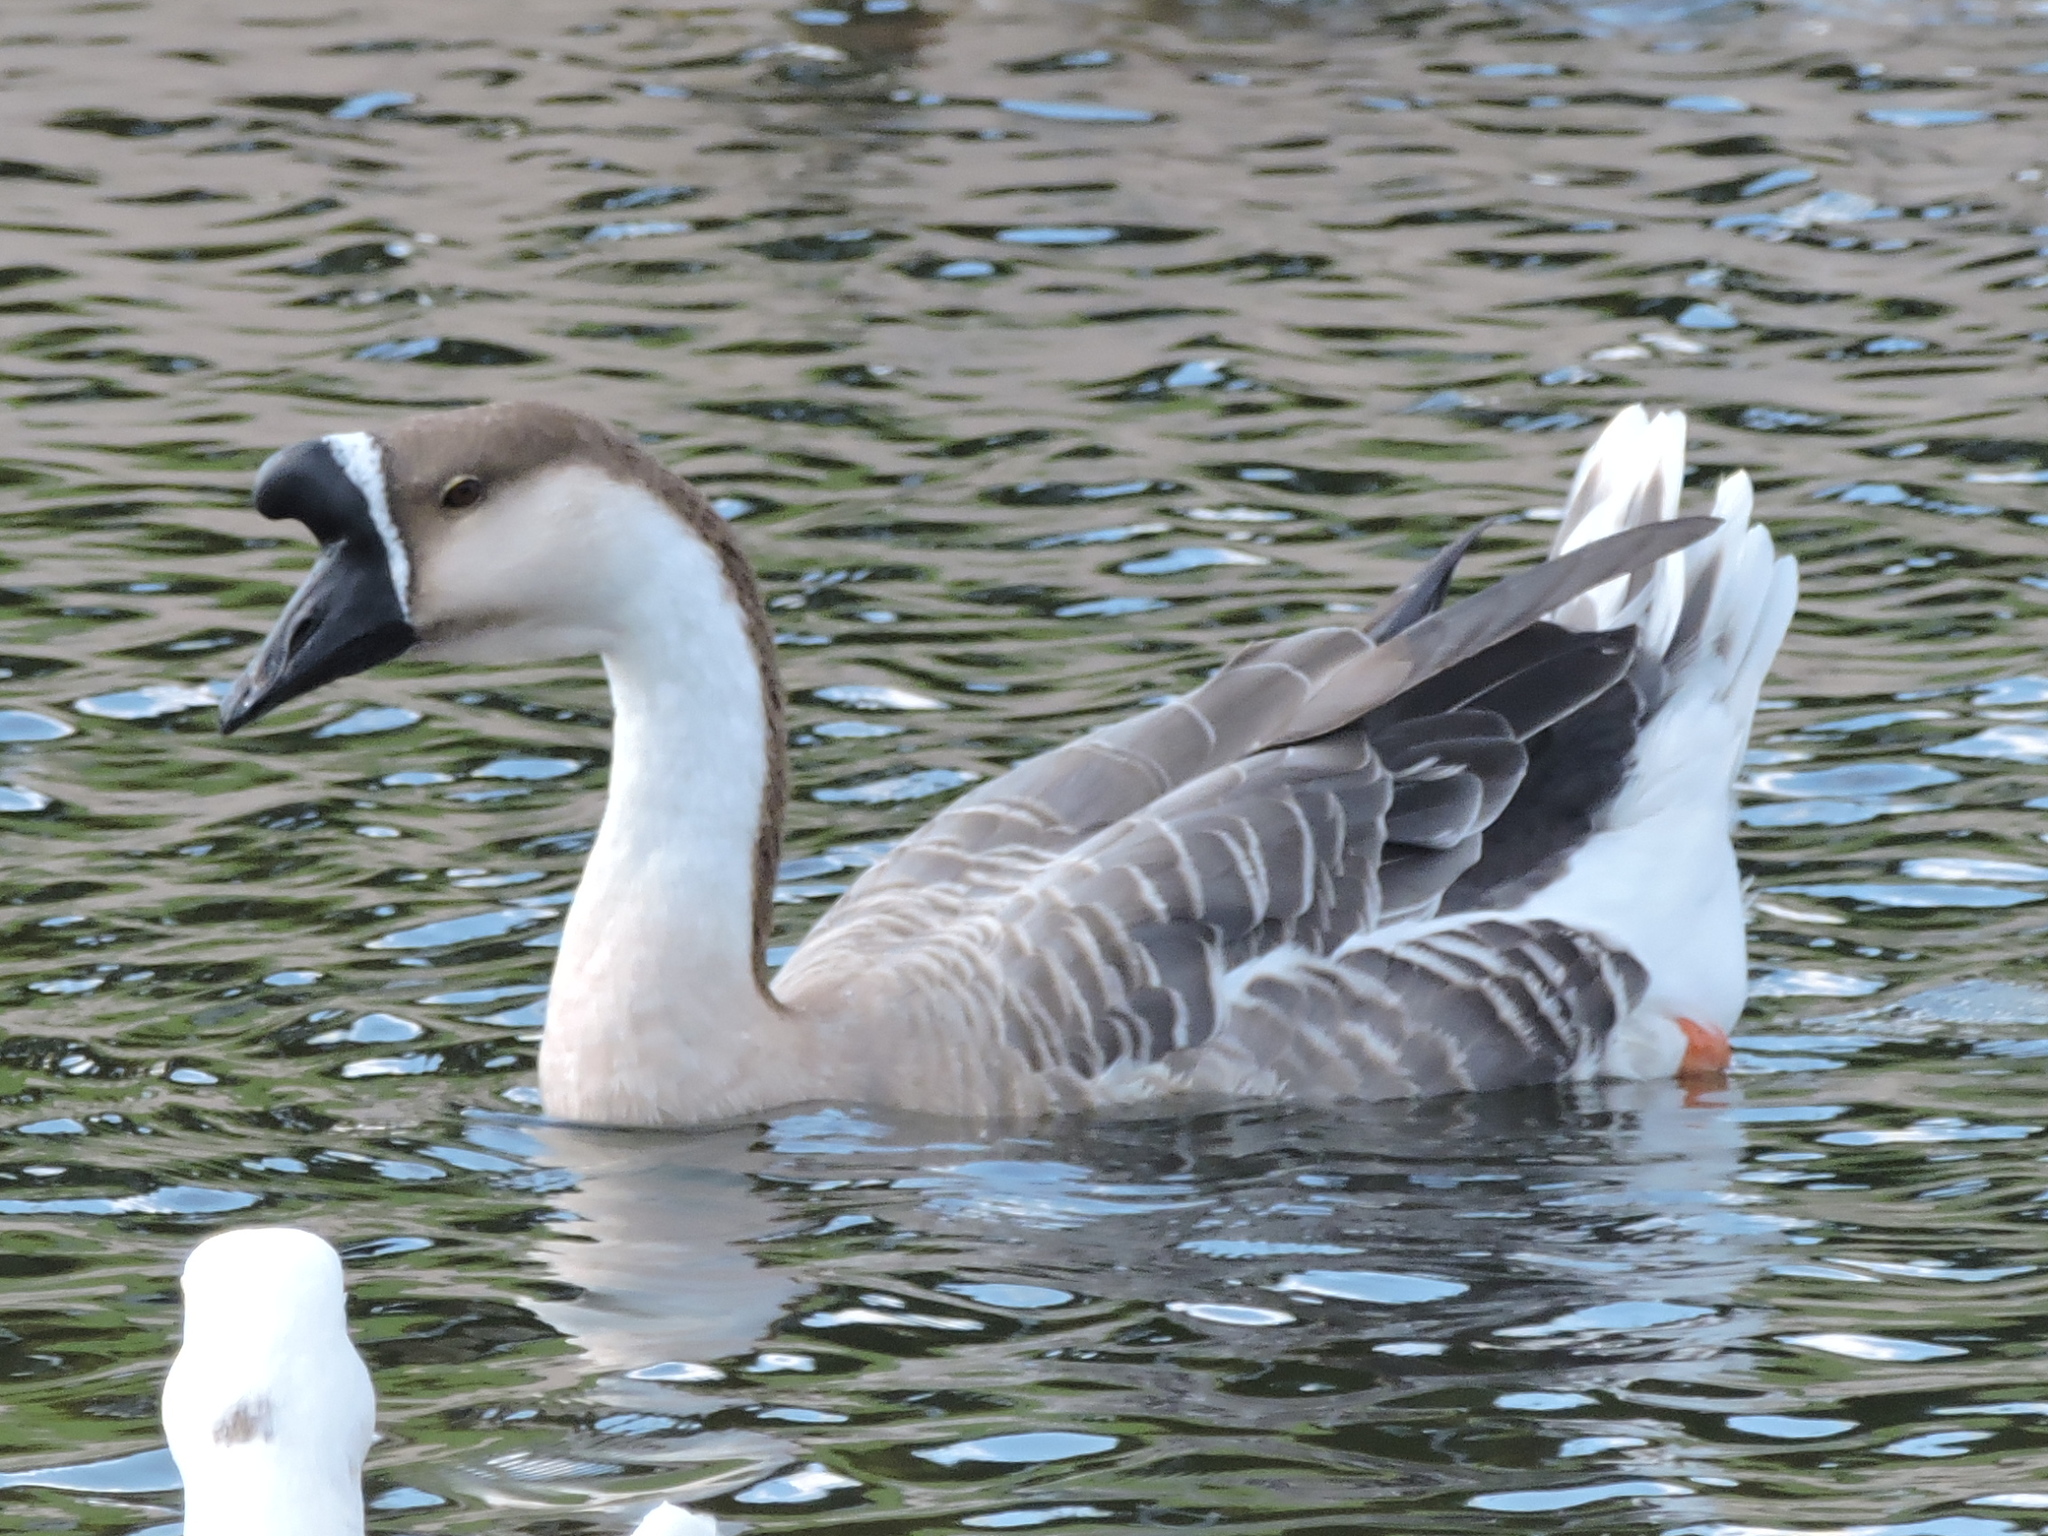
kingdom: Animalia
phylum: Chordata
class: Aves
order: Anseriformes
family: Anatidae
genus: Anser
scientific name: Anser cygnoides
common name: Swan goose
